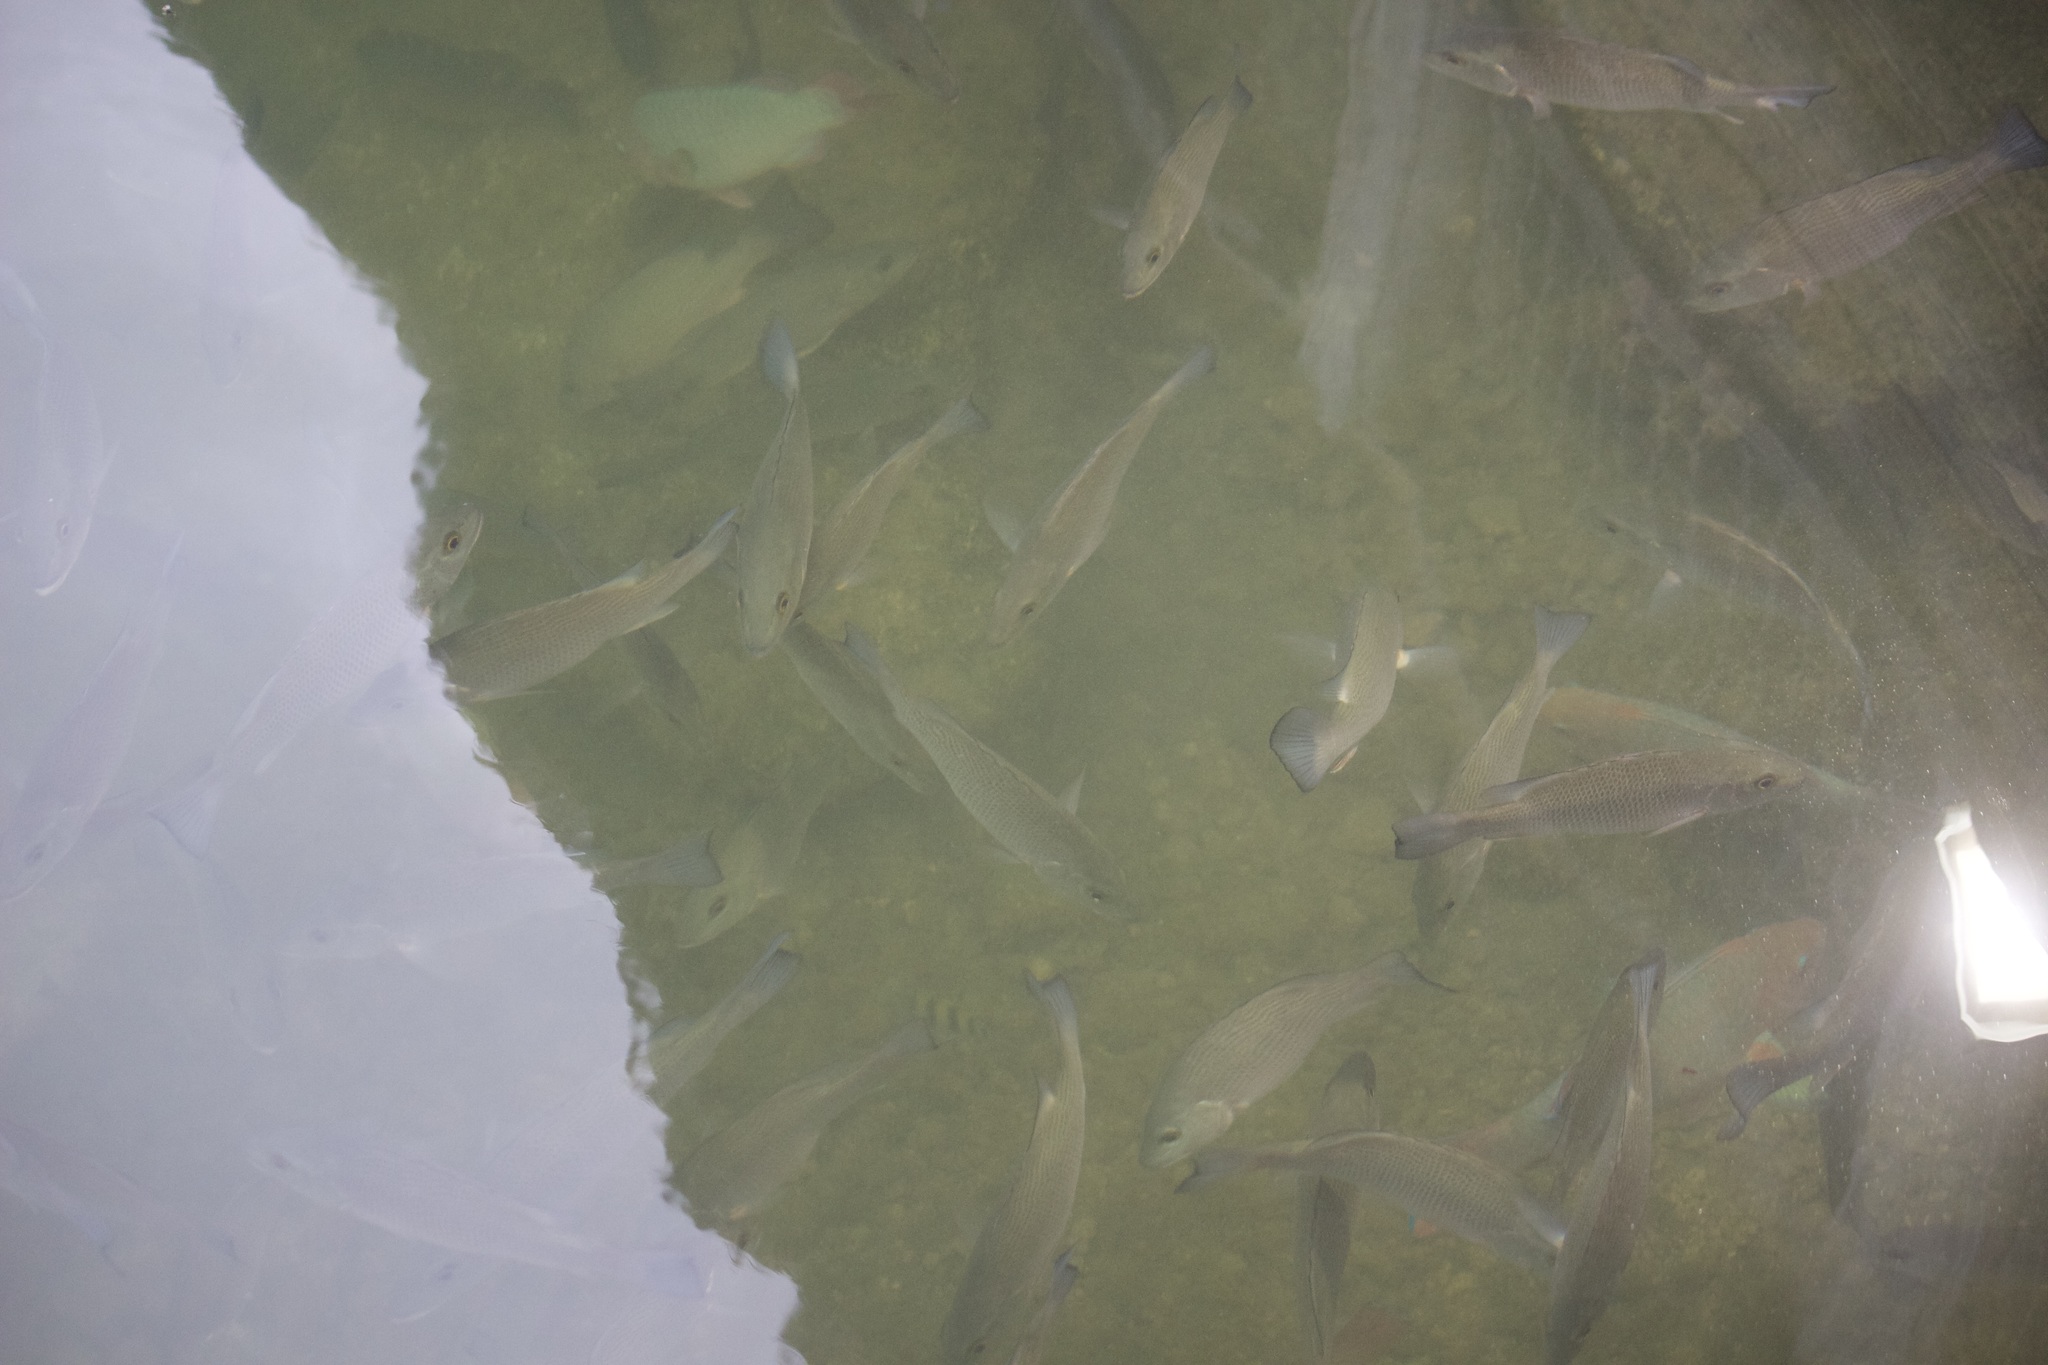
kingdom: Animalia
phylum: Chordata
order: Perciformes
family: Lutjanidae
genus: Lutjanus
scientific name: Lutjanus griseus
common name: Gray snapper
